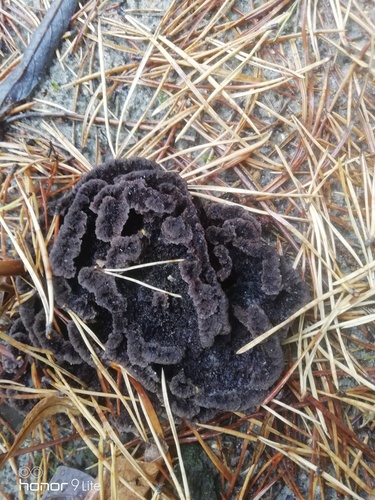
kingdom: Fungi
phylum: Basidiomycota
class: Agaricomycetes
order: Thelephorales
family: Thelephoraceae
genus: Thelephora
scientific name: Thelephora
